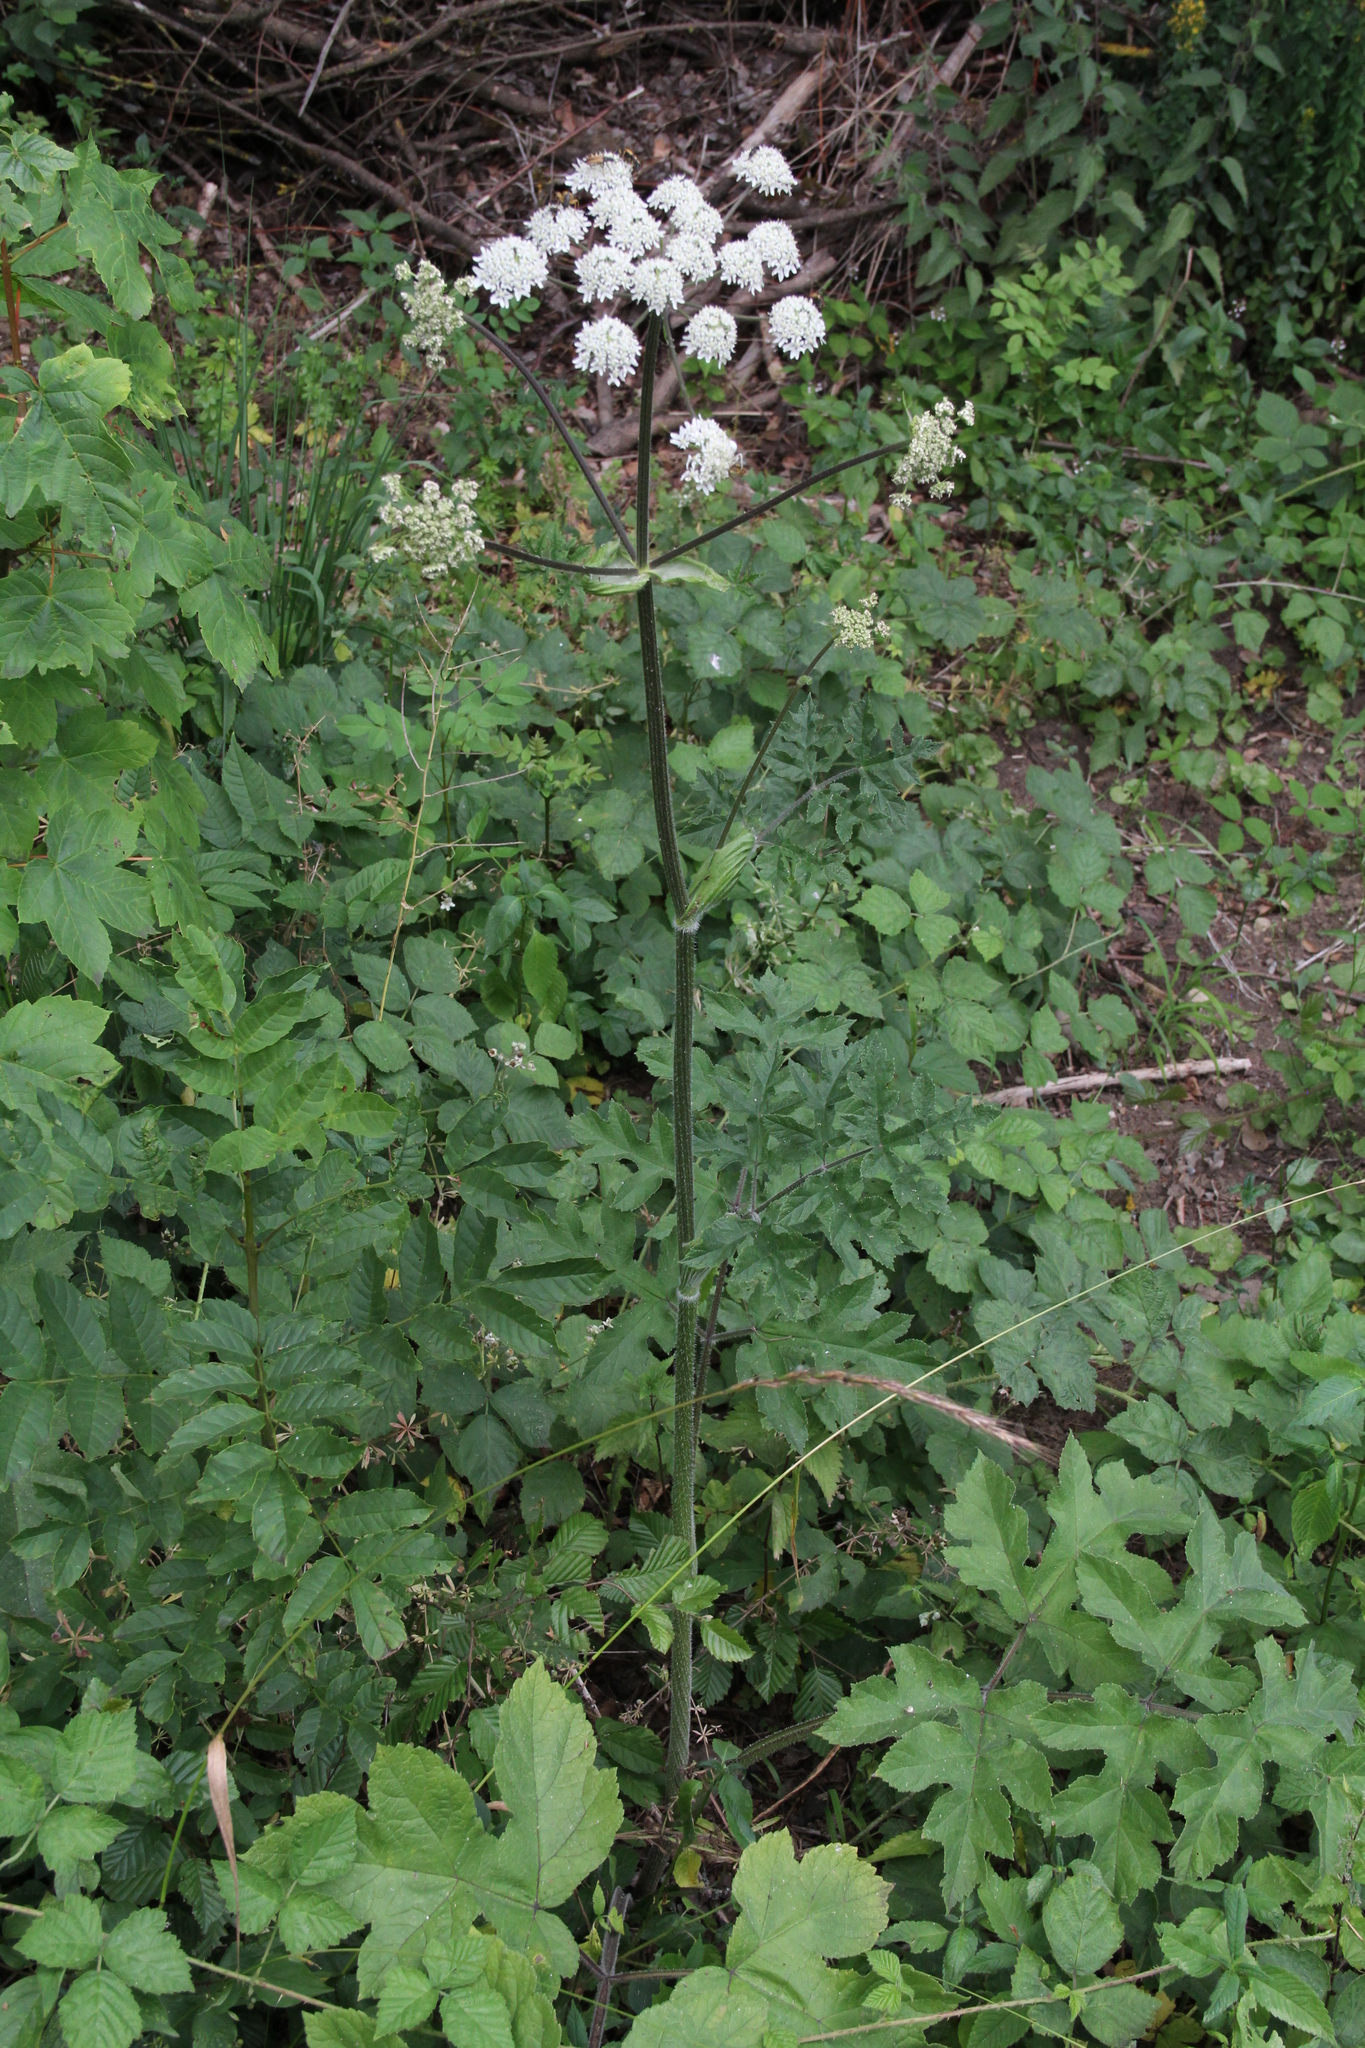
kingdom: Plantae
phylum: Tracheophyta
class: Magnoliopsida
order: Apiales
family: Apiaceae
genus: Heracleum
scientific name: Heracleum sphondylium
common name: Hogweed
